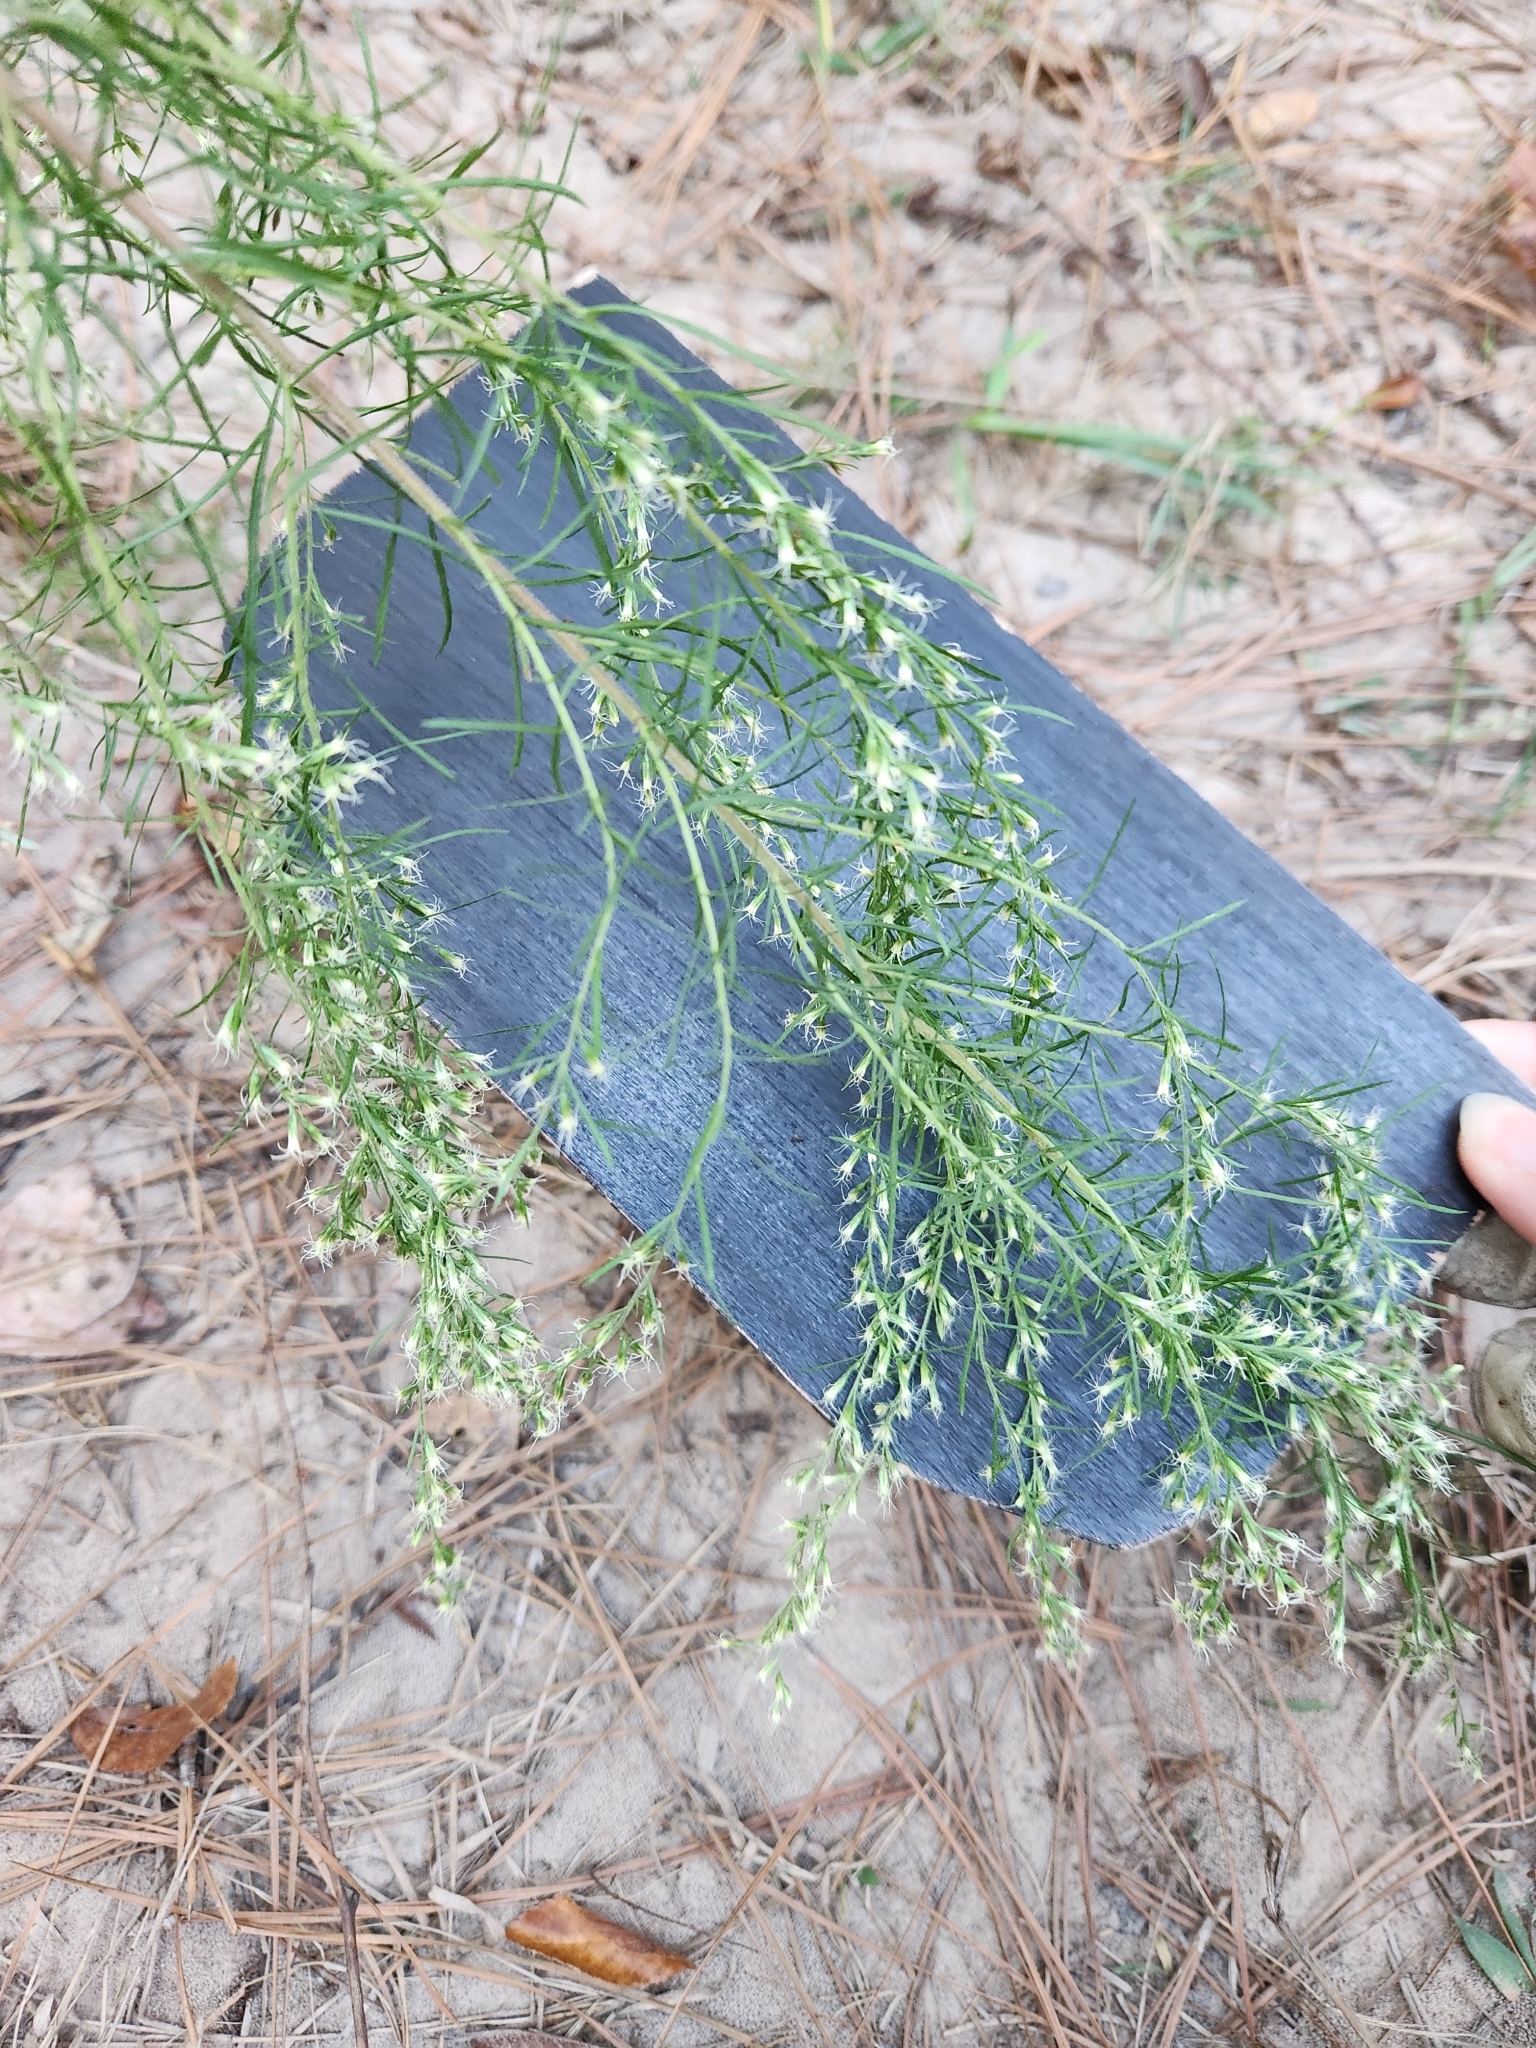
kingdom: Plantae
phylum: Tracheophyta
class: Magnoliopsida
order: Asterales
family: Asteraceae
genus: Eupatorium
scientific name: Eupatorium compositifolium
